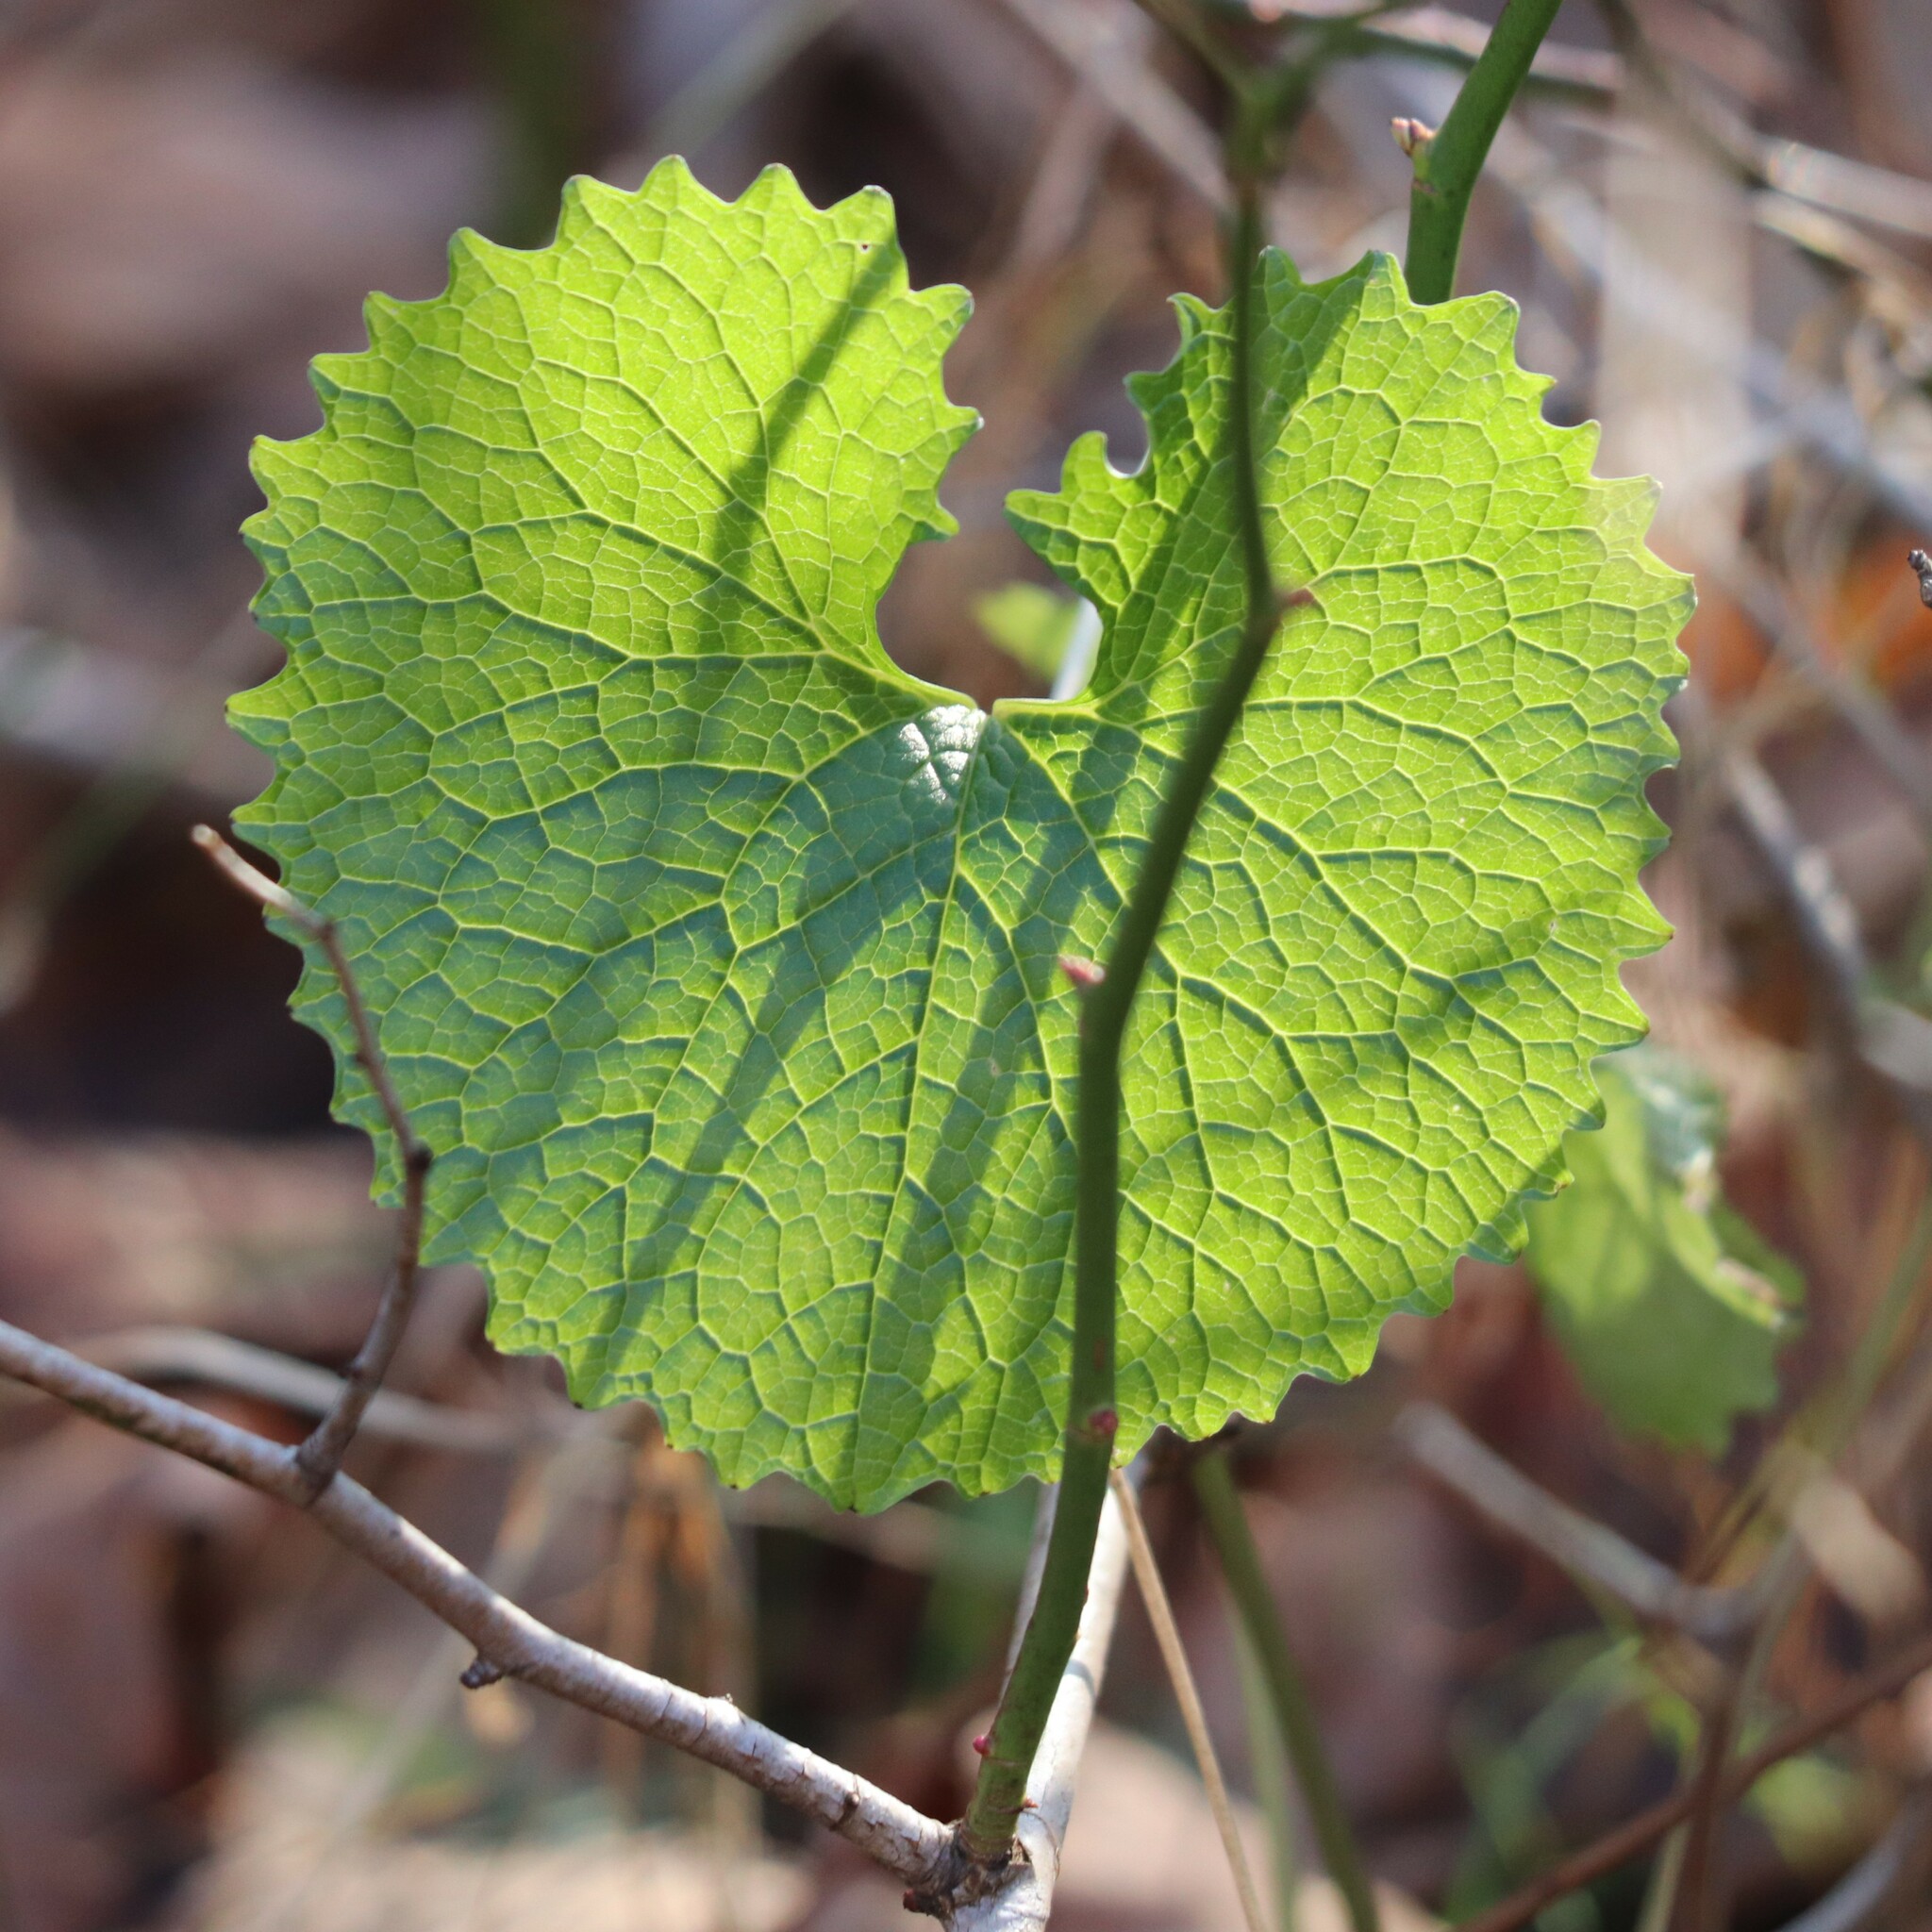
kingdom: Plantae
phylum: Tracheophyta
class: Magnoliopsida
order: Brassicales
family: Brassicaceae
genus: Alliaria
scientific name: Alliaria petiolata
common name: Garlic mustard
